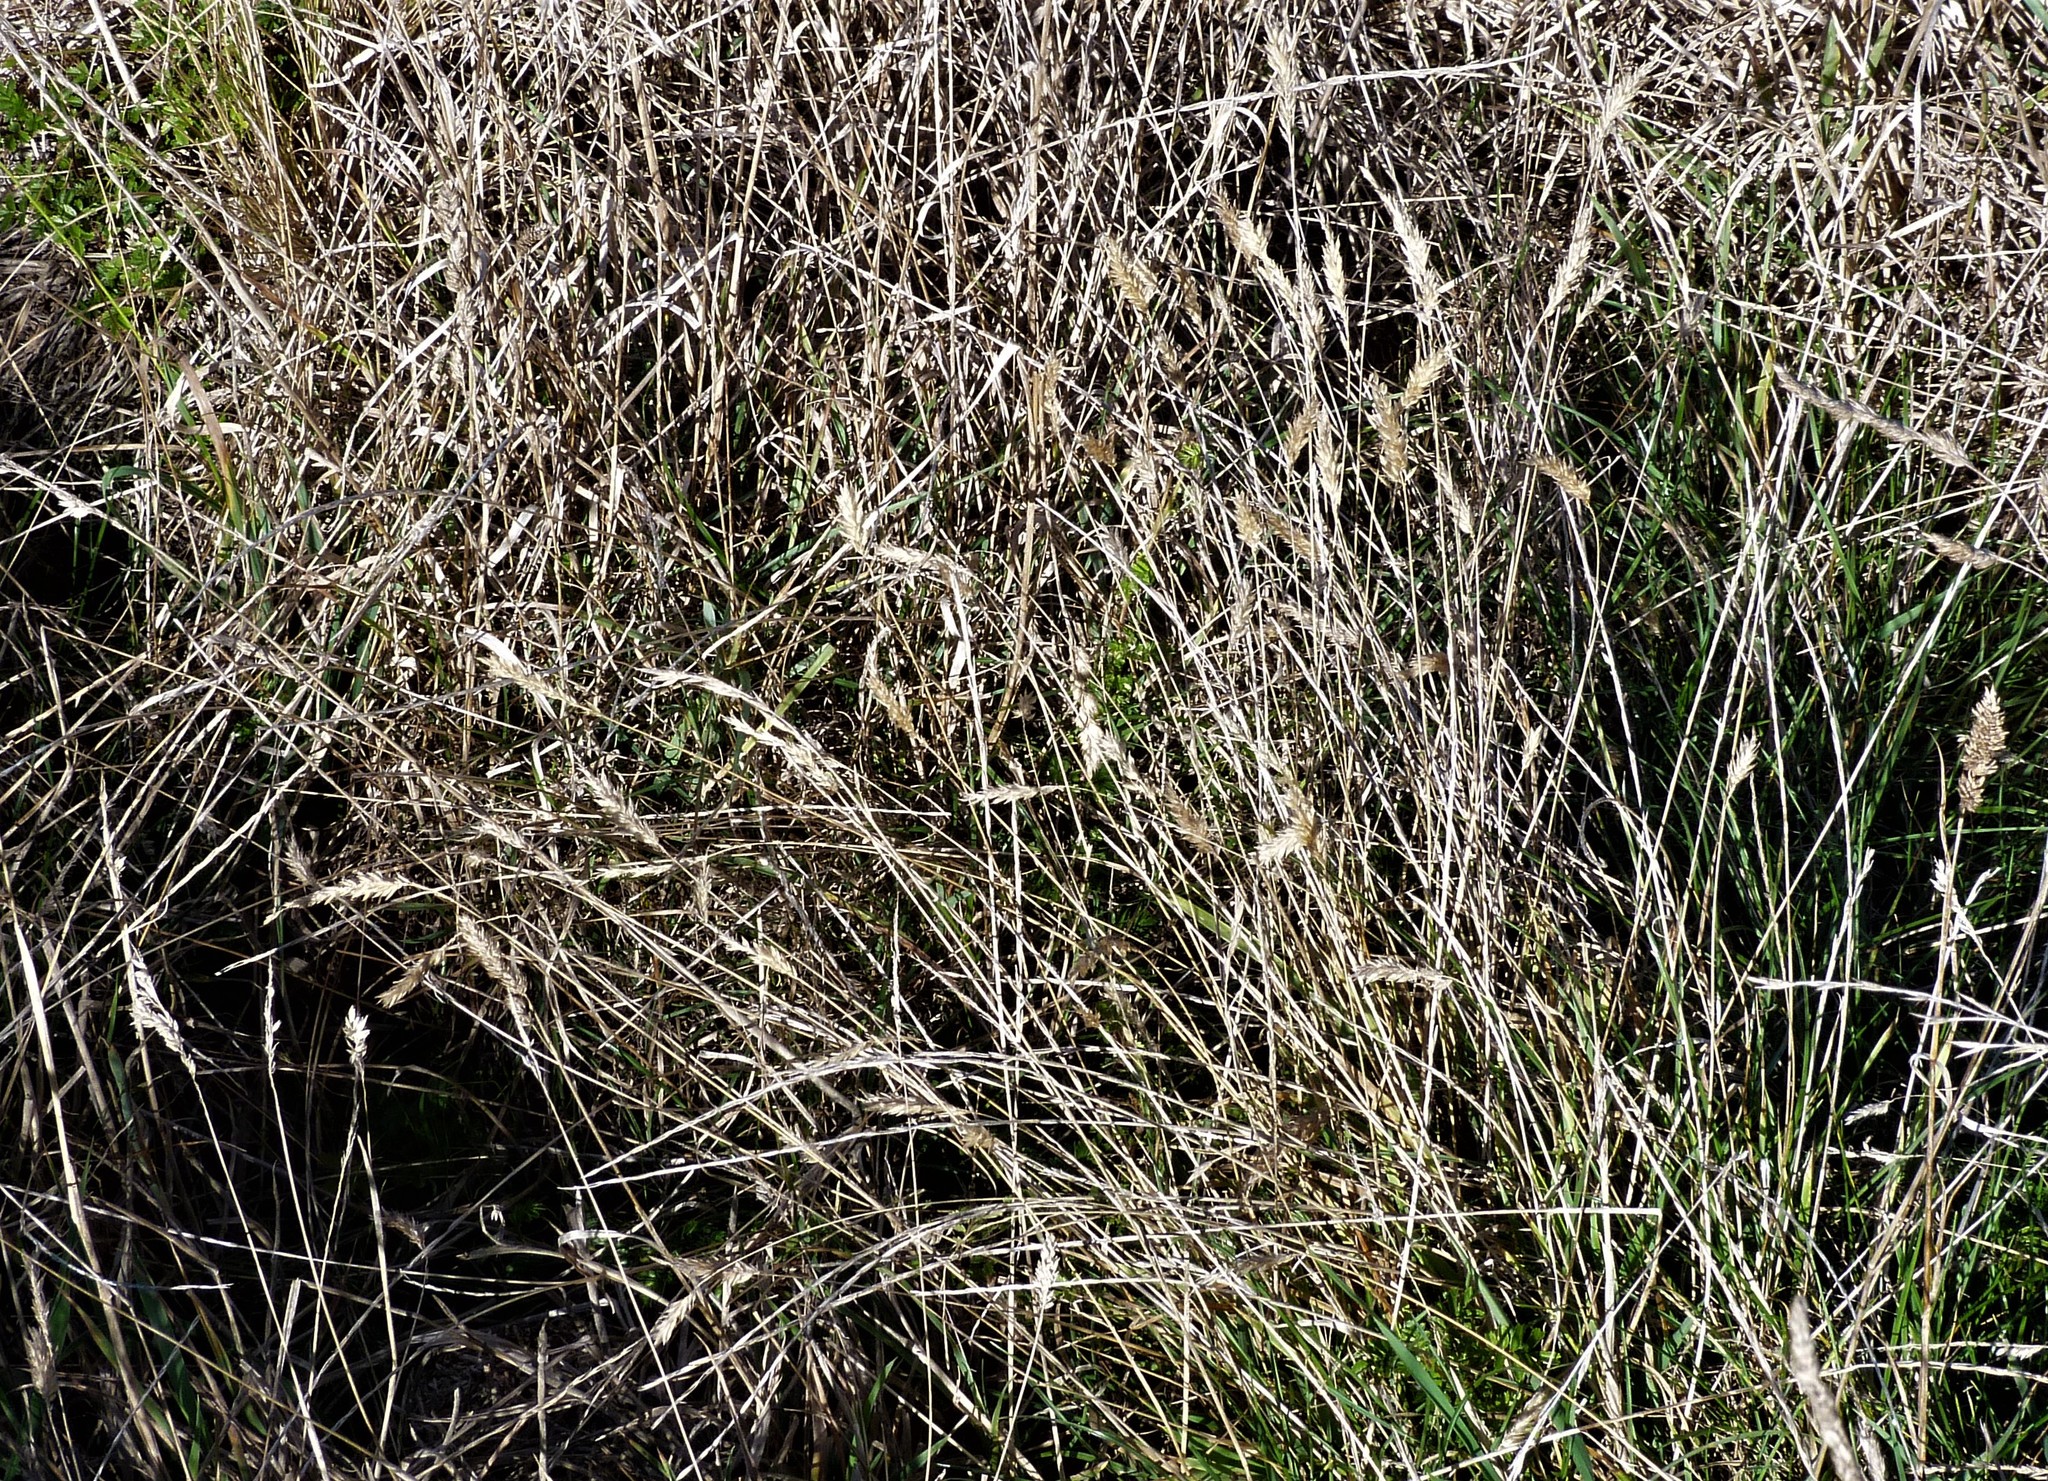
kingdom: Plantae
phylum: Tracheophyta
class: Liliopsida
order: Poales
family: Poaceae
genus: Anthoxanthum
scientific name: Anthoxanthum odoratum
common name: Sweet vernalgrass
